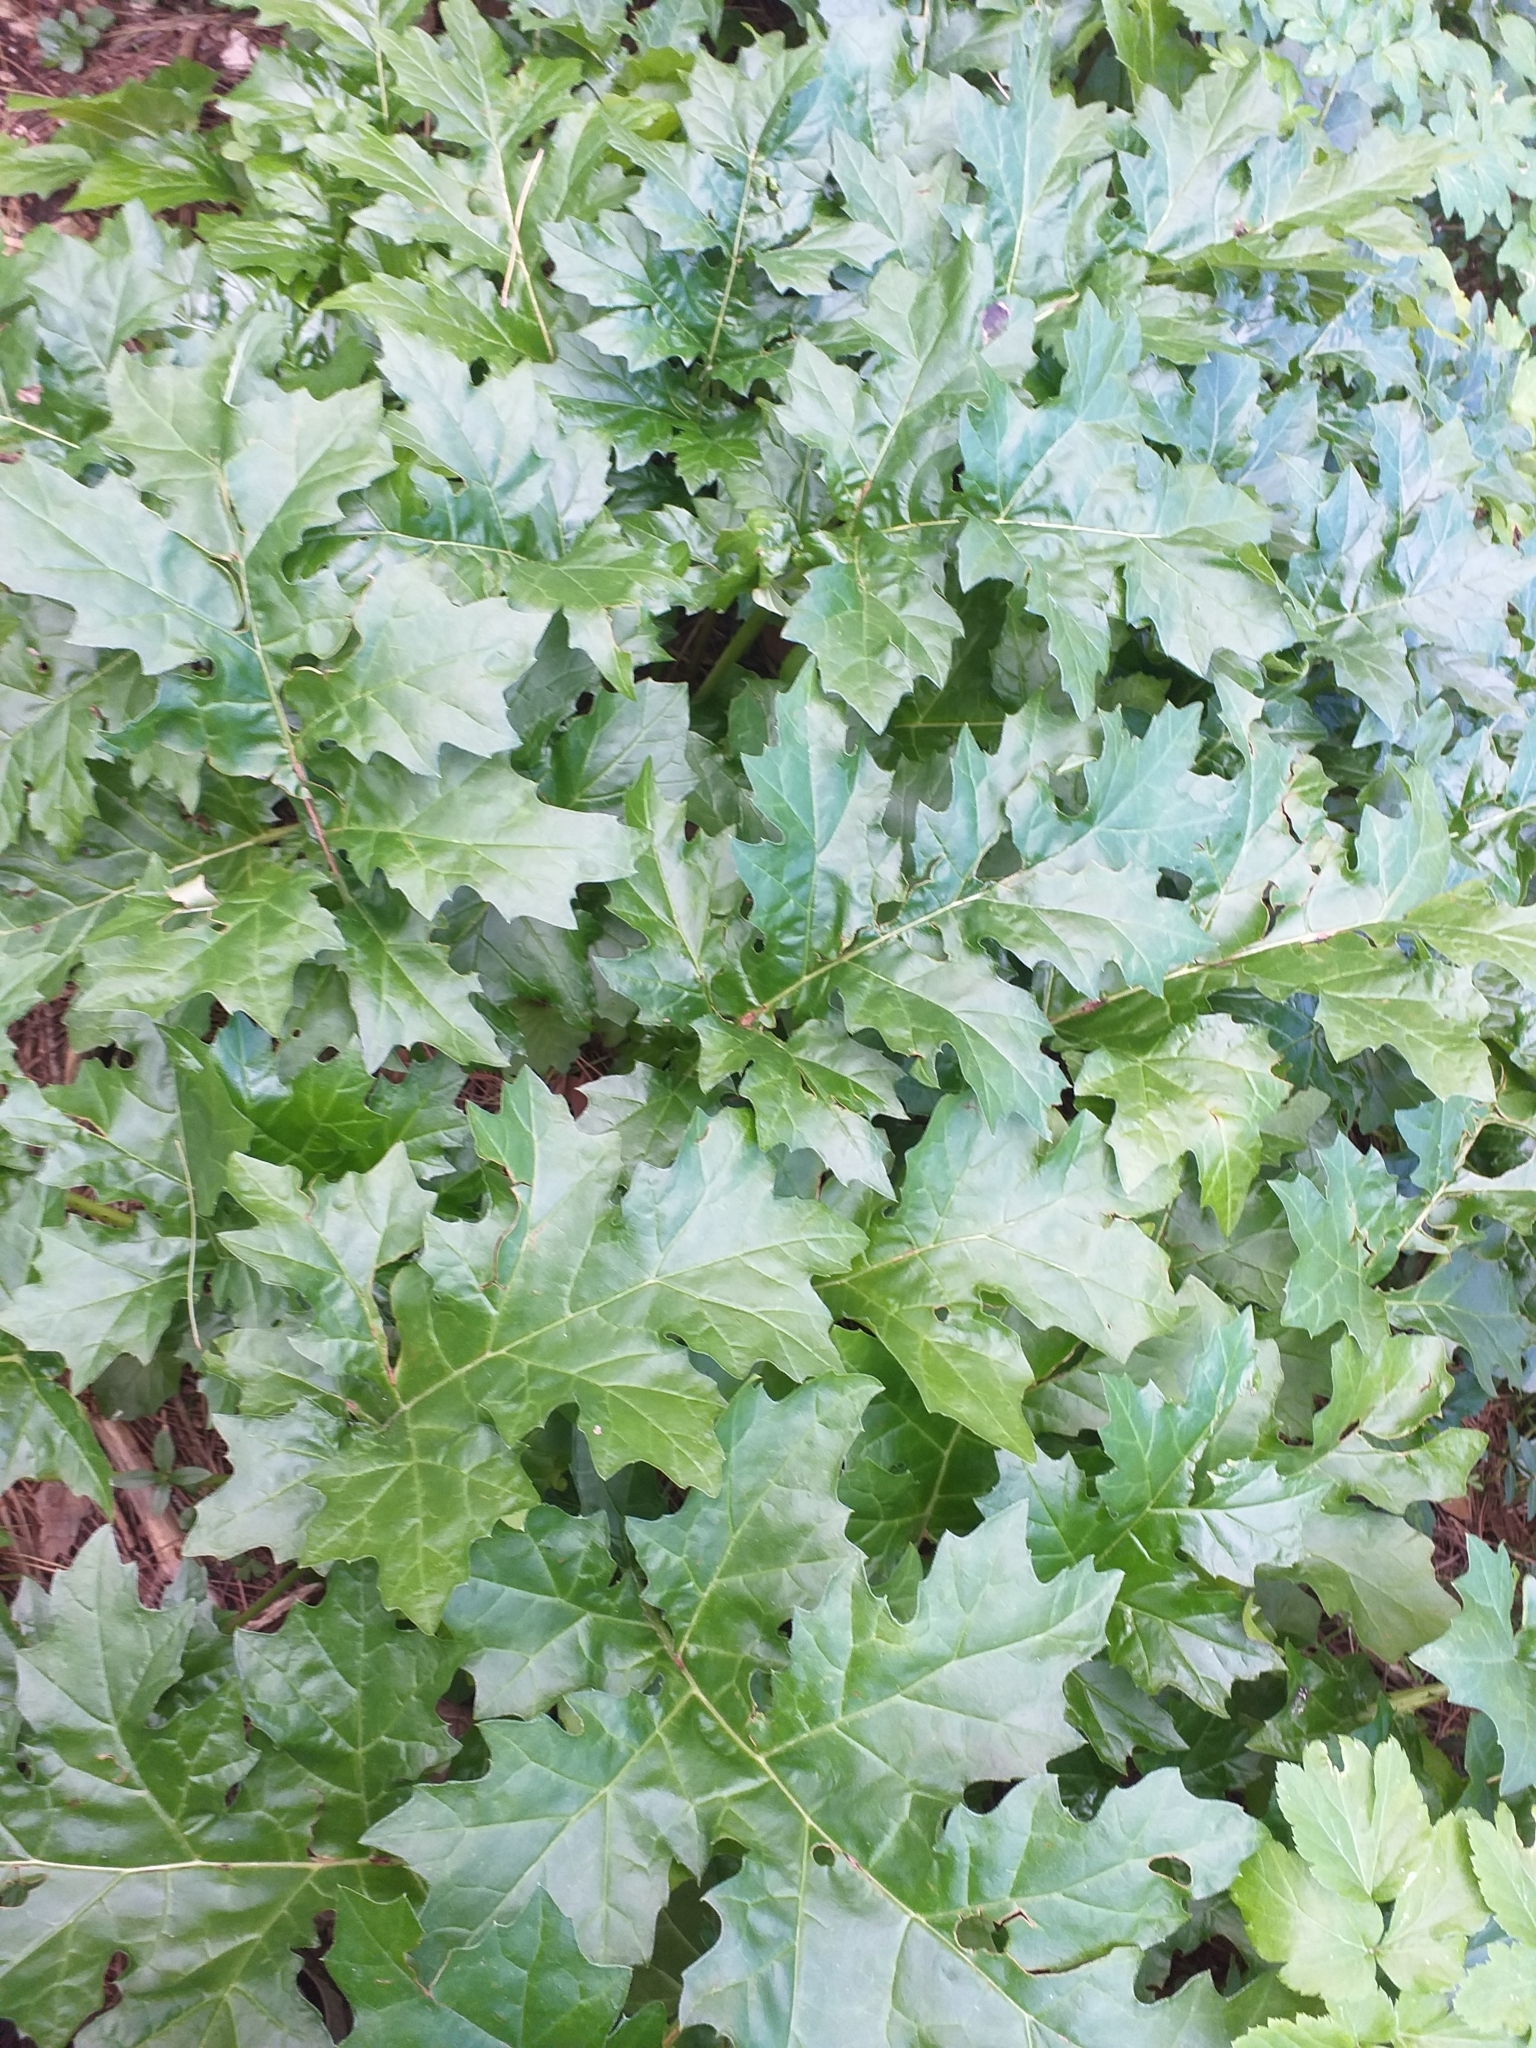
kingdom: Plantae
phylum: Tracheophyta
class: Magnoliopsida
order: Lamiales
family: Acanthaceae
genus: Acanthus
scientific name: Acanthus mollis
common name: Bear's-breech
